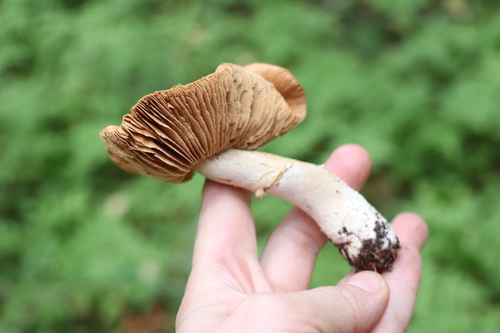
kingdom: Fungi
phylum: Basidiomycota
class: Agaricomycetes
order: Agaricales
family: Cortinariaceae
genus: Cortinarius
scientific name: Cortinarius caperatus
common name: The gypsy
